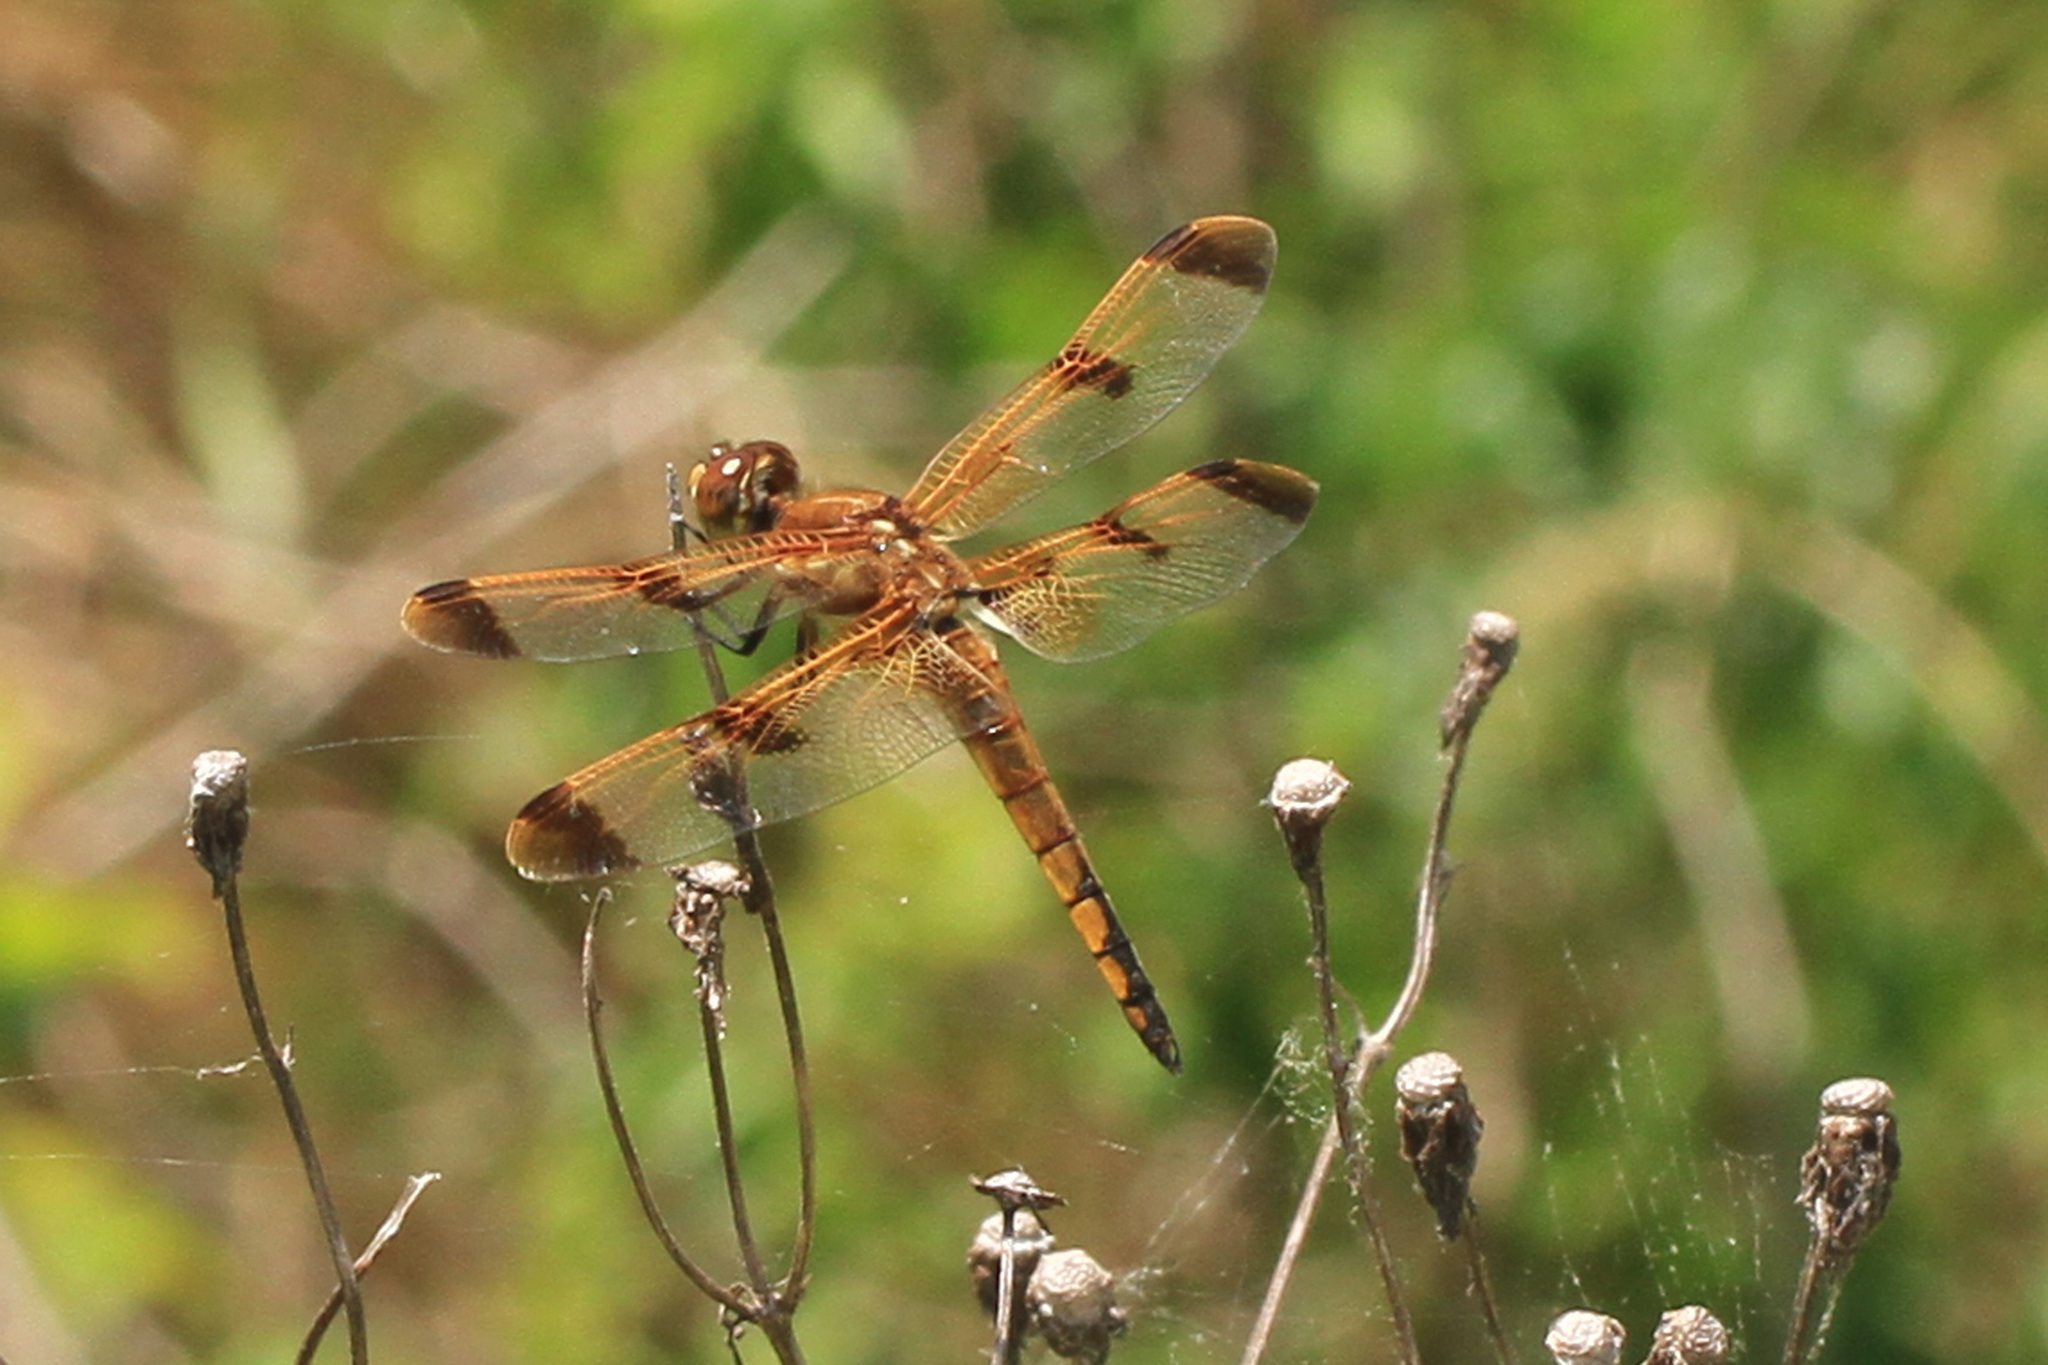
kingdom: Animalia
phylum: Arthropoda
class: Insecta
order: Odonata
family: Libellulidae
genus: Libellula
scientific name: Libellula semifasciata
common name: Painted skimmer
